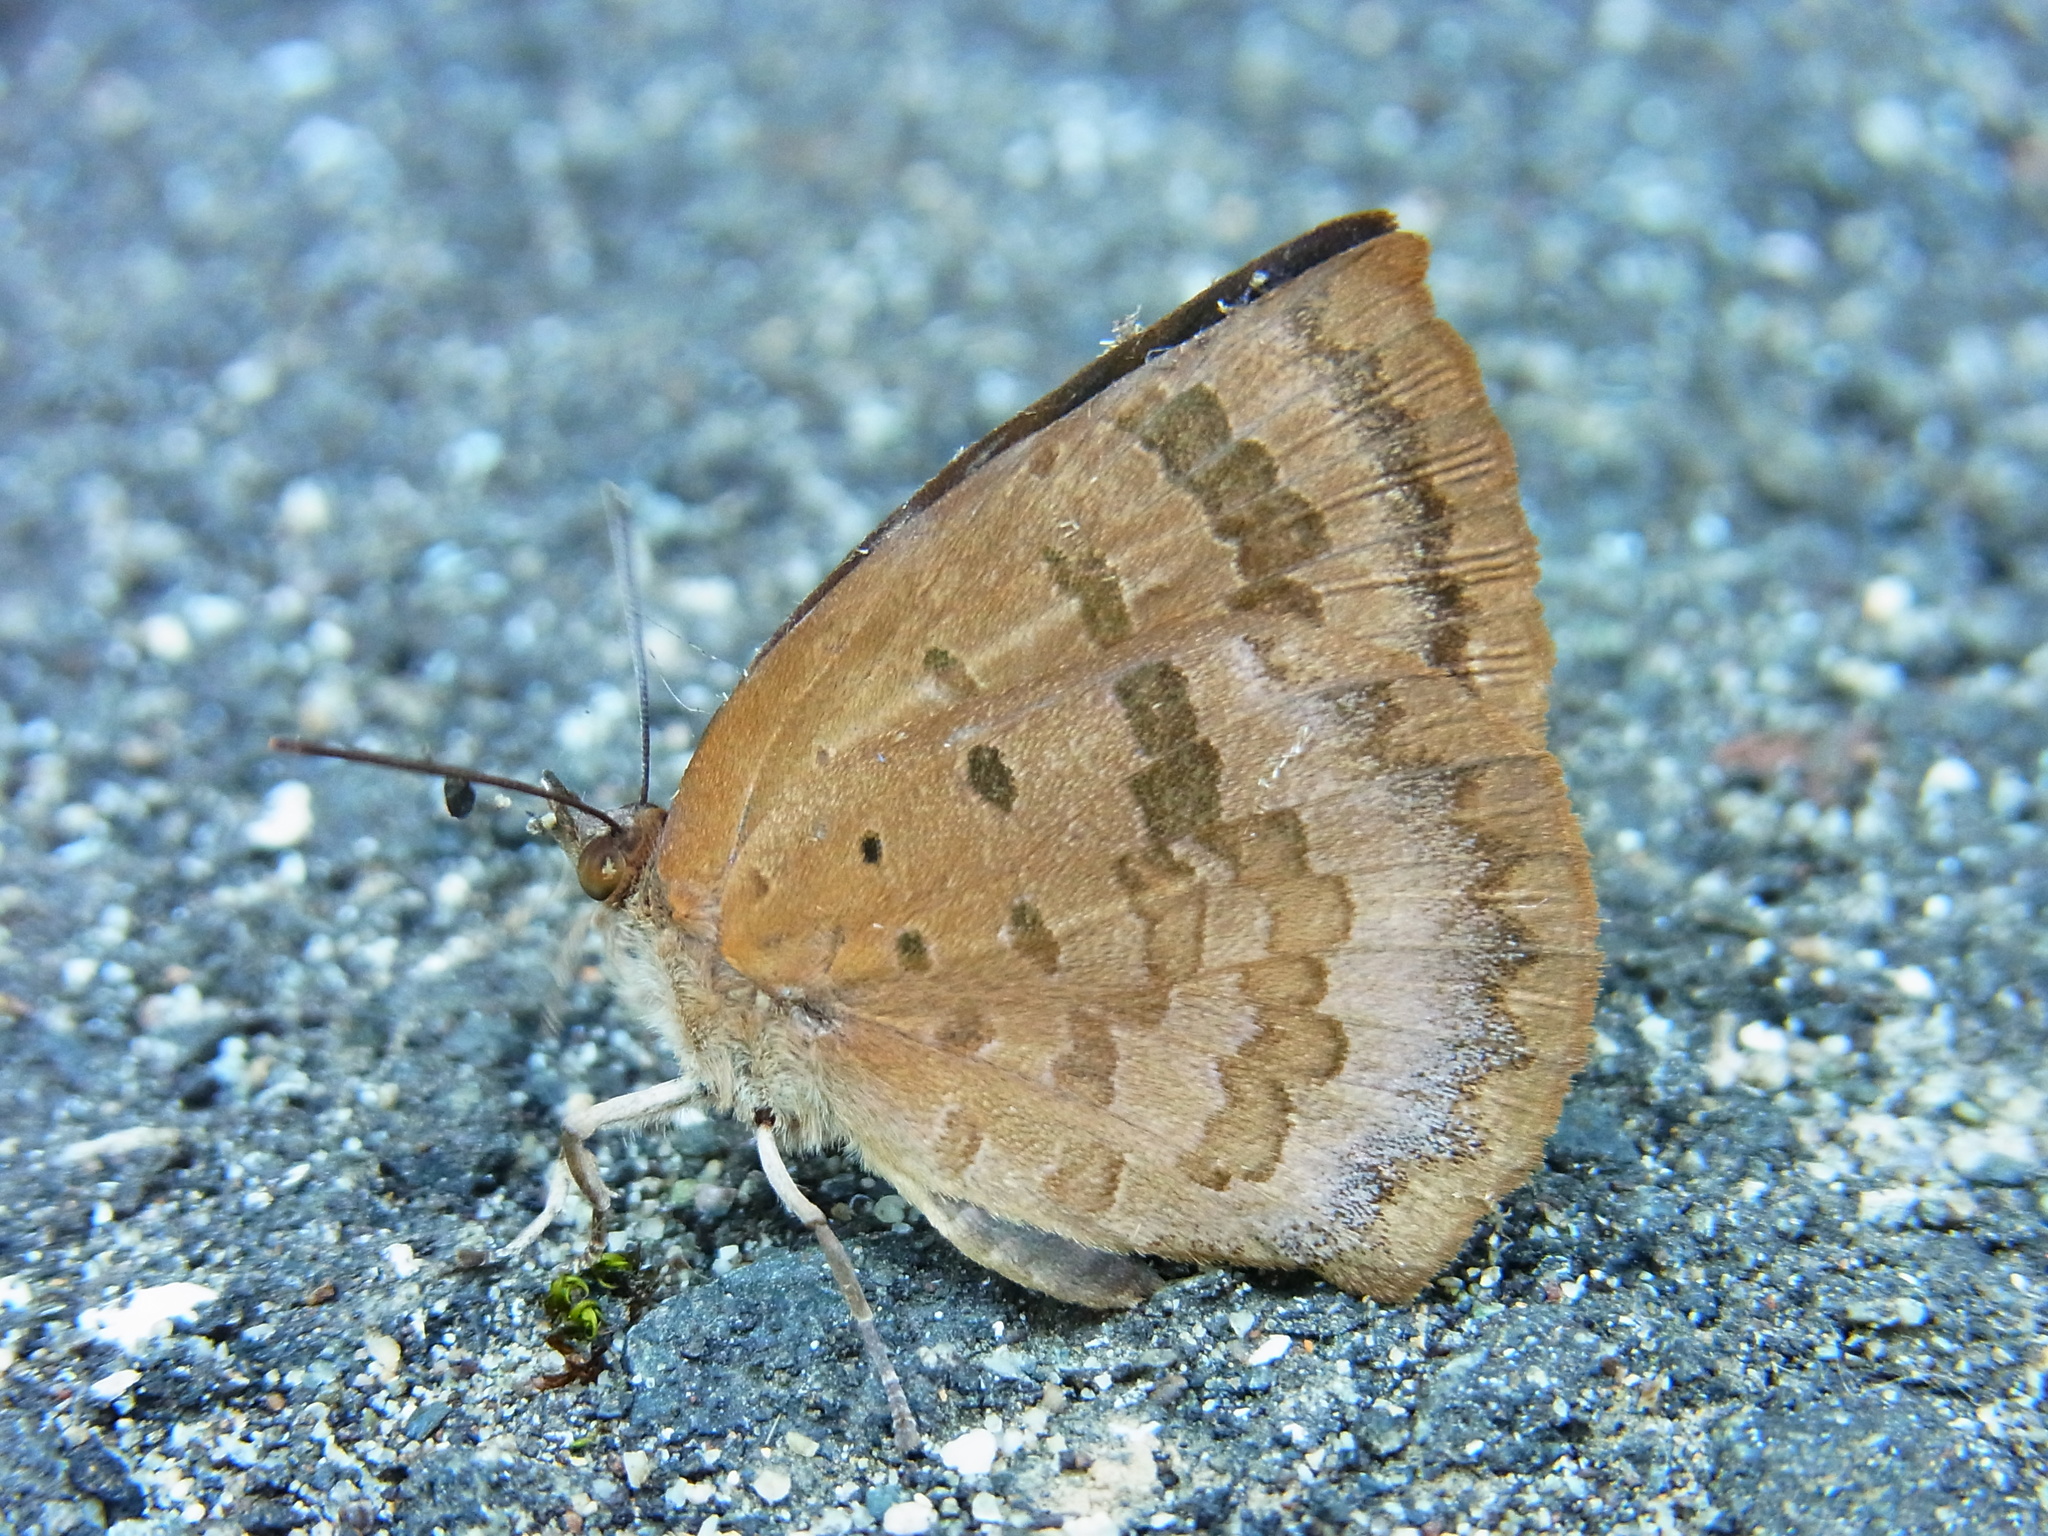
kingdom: Animalia
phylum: Arthropoda
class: Insecta
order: Lepidoptera
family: Lycaenidae
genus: Arhopala
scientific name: Arhopala japonica
